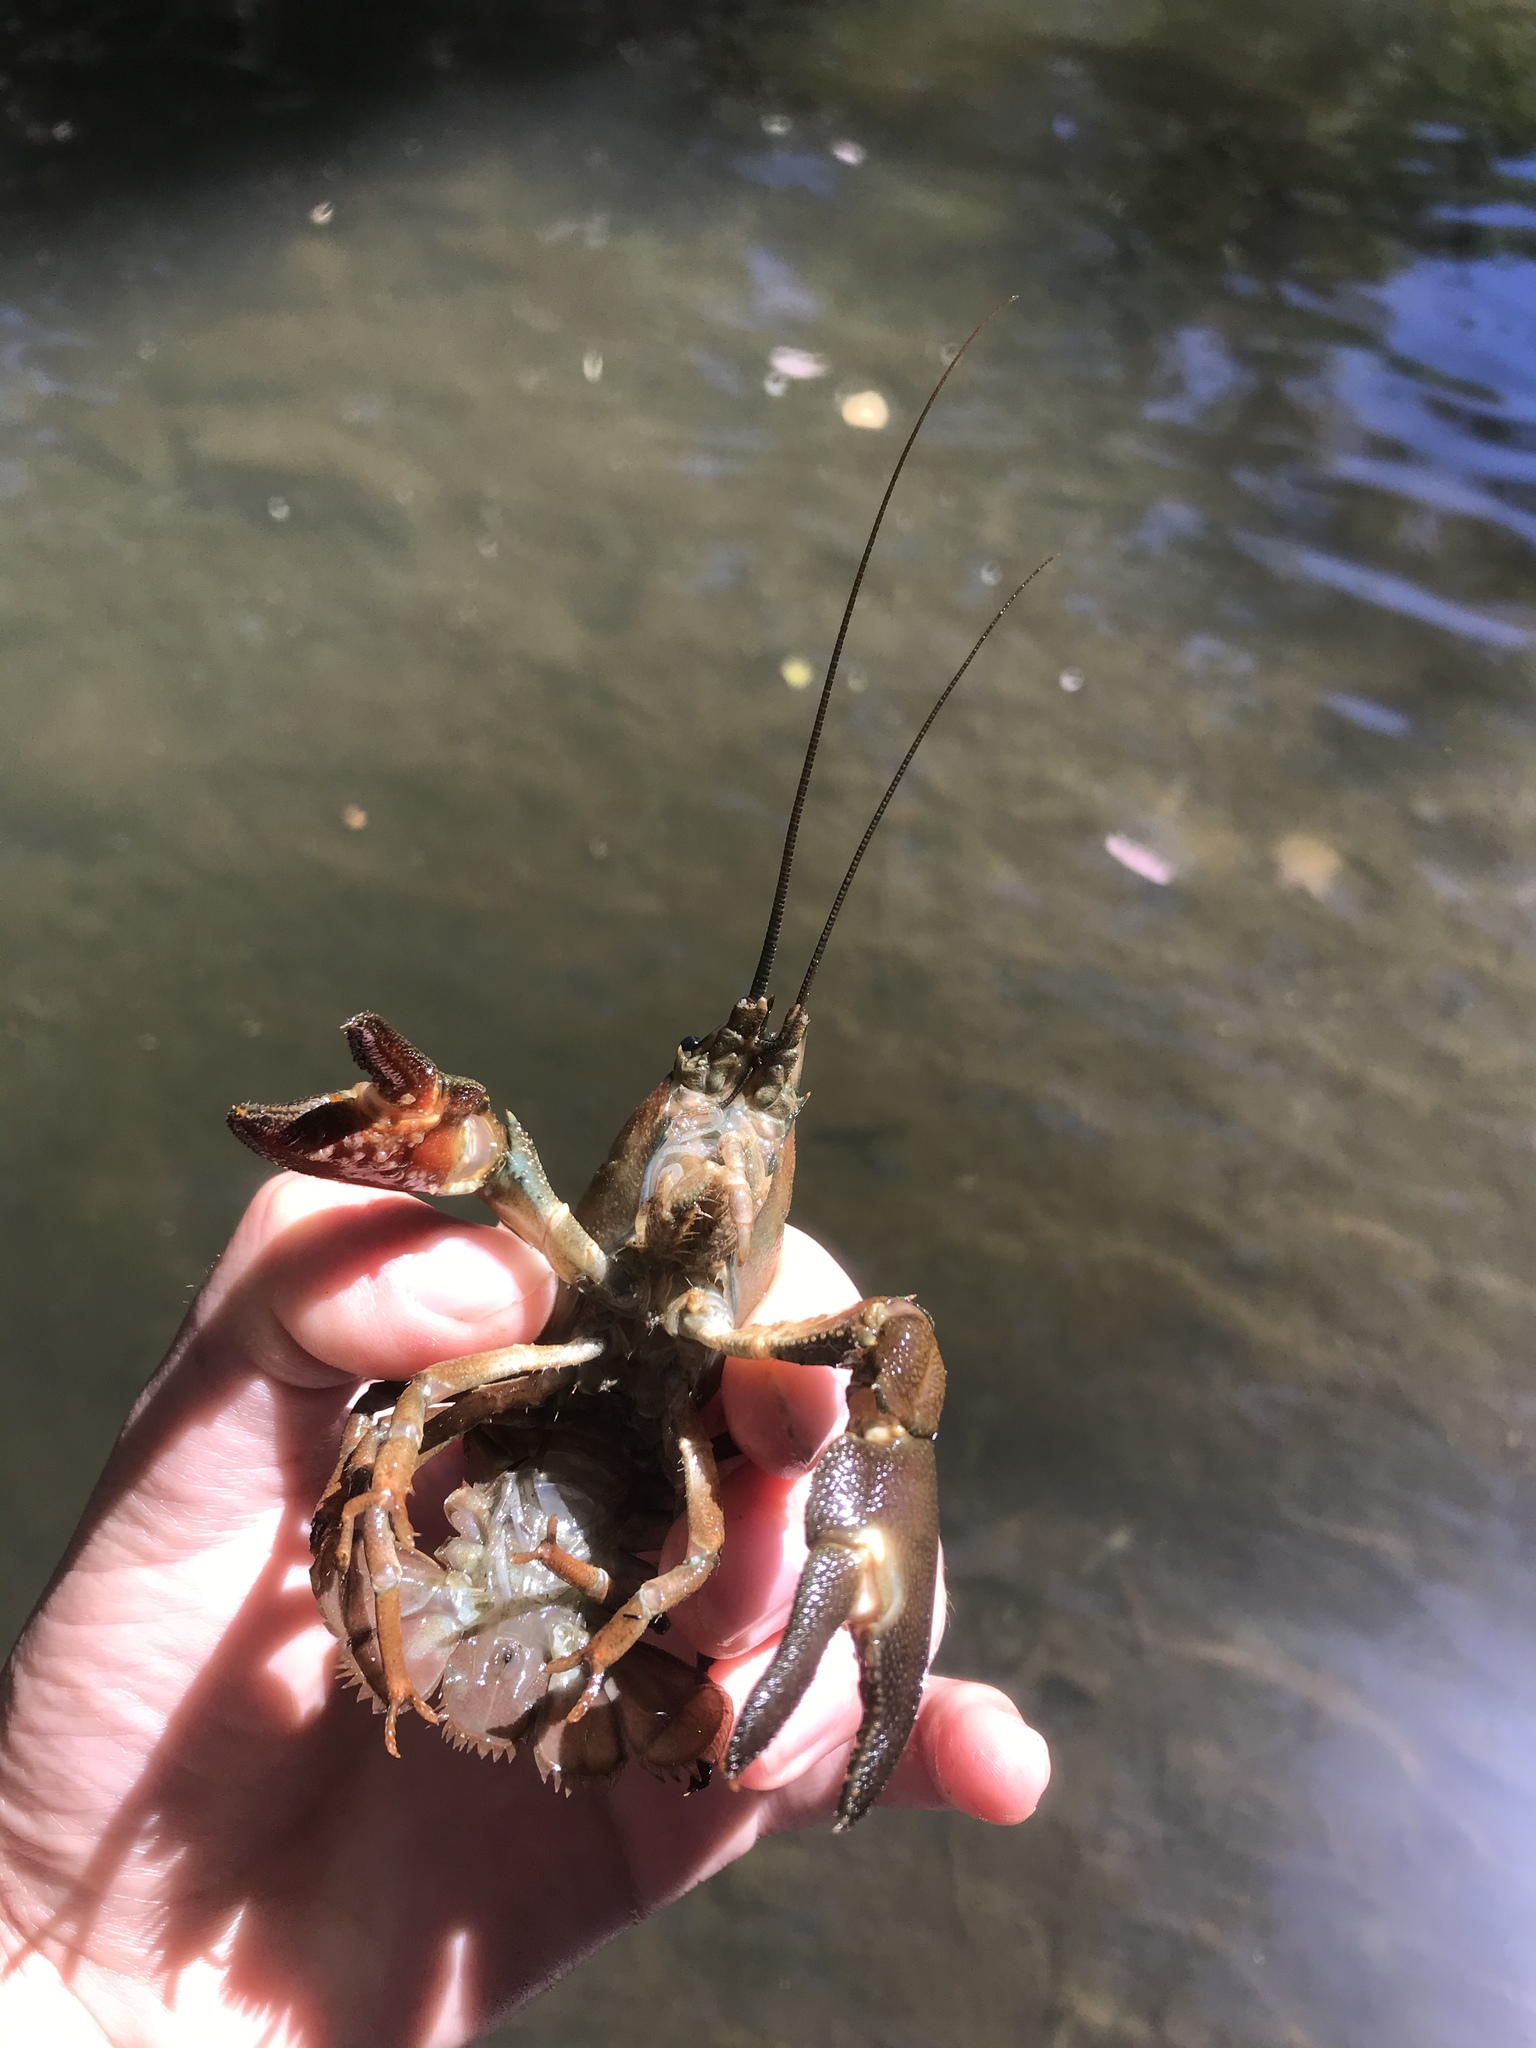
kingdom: Animalia
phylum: Arthropoda
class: Malacostraca
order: Decapoda
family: Astacidae
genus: Pacifastacus
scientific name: Pacifastacus leniusculus
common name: Signal crayfish
